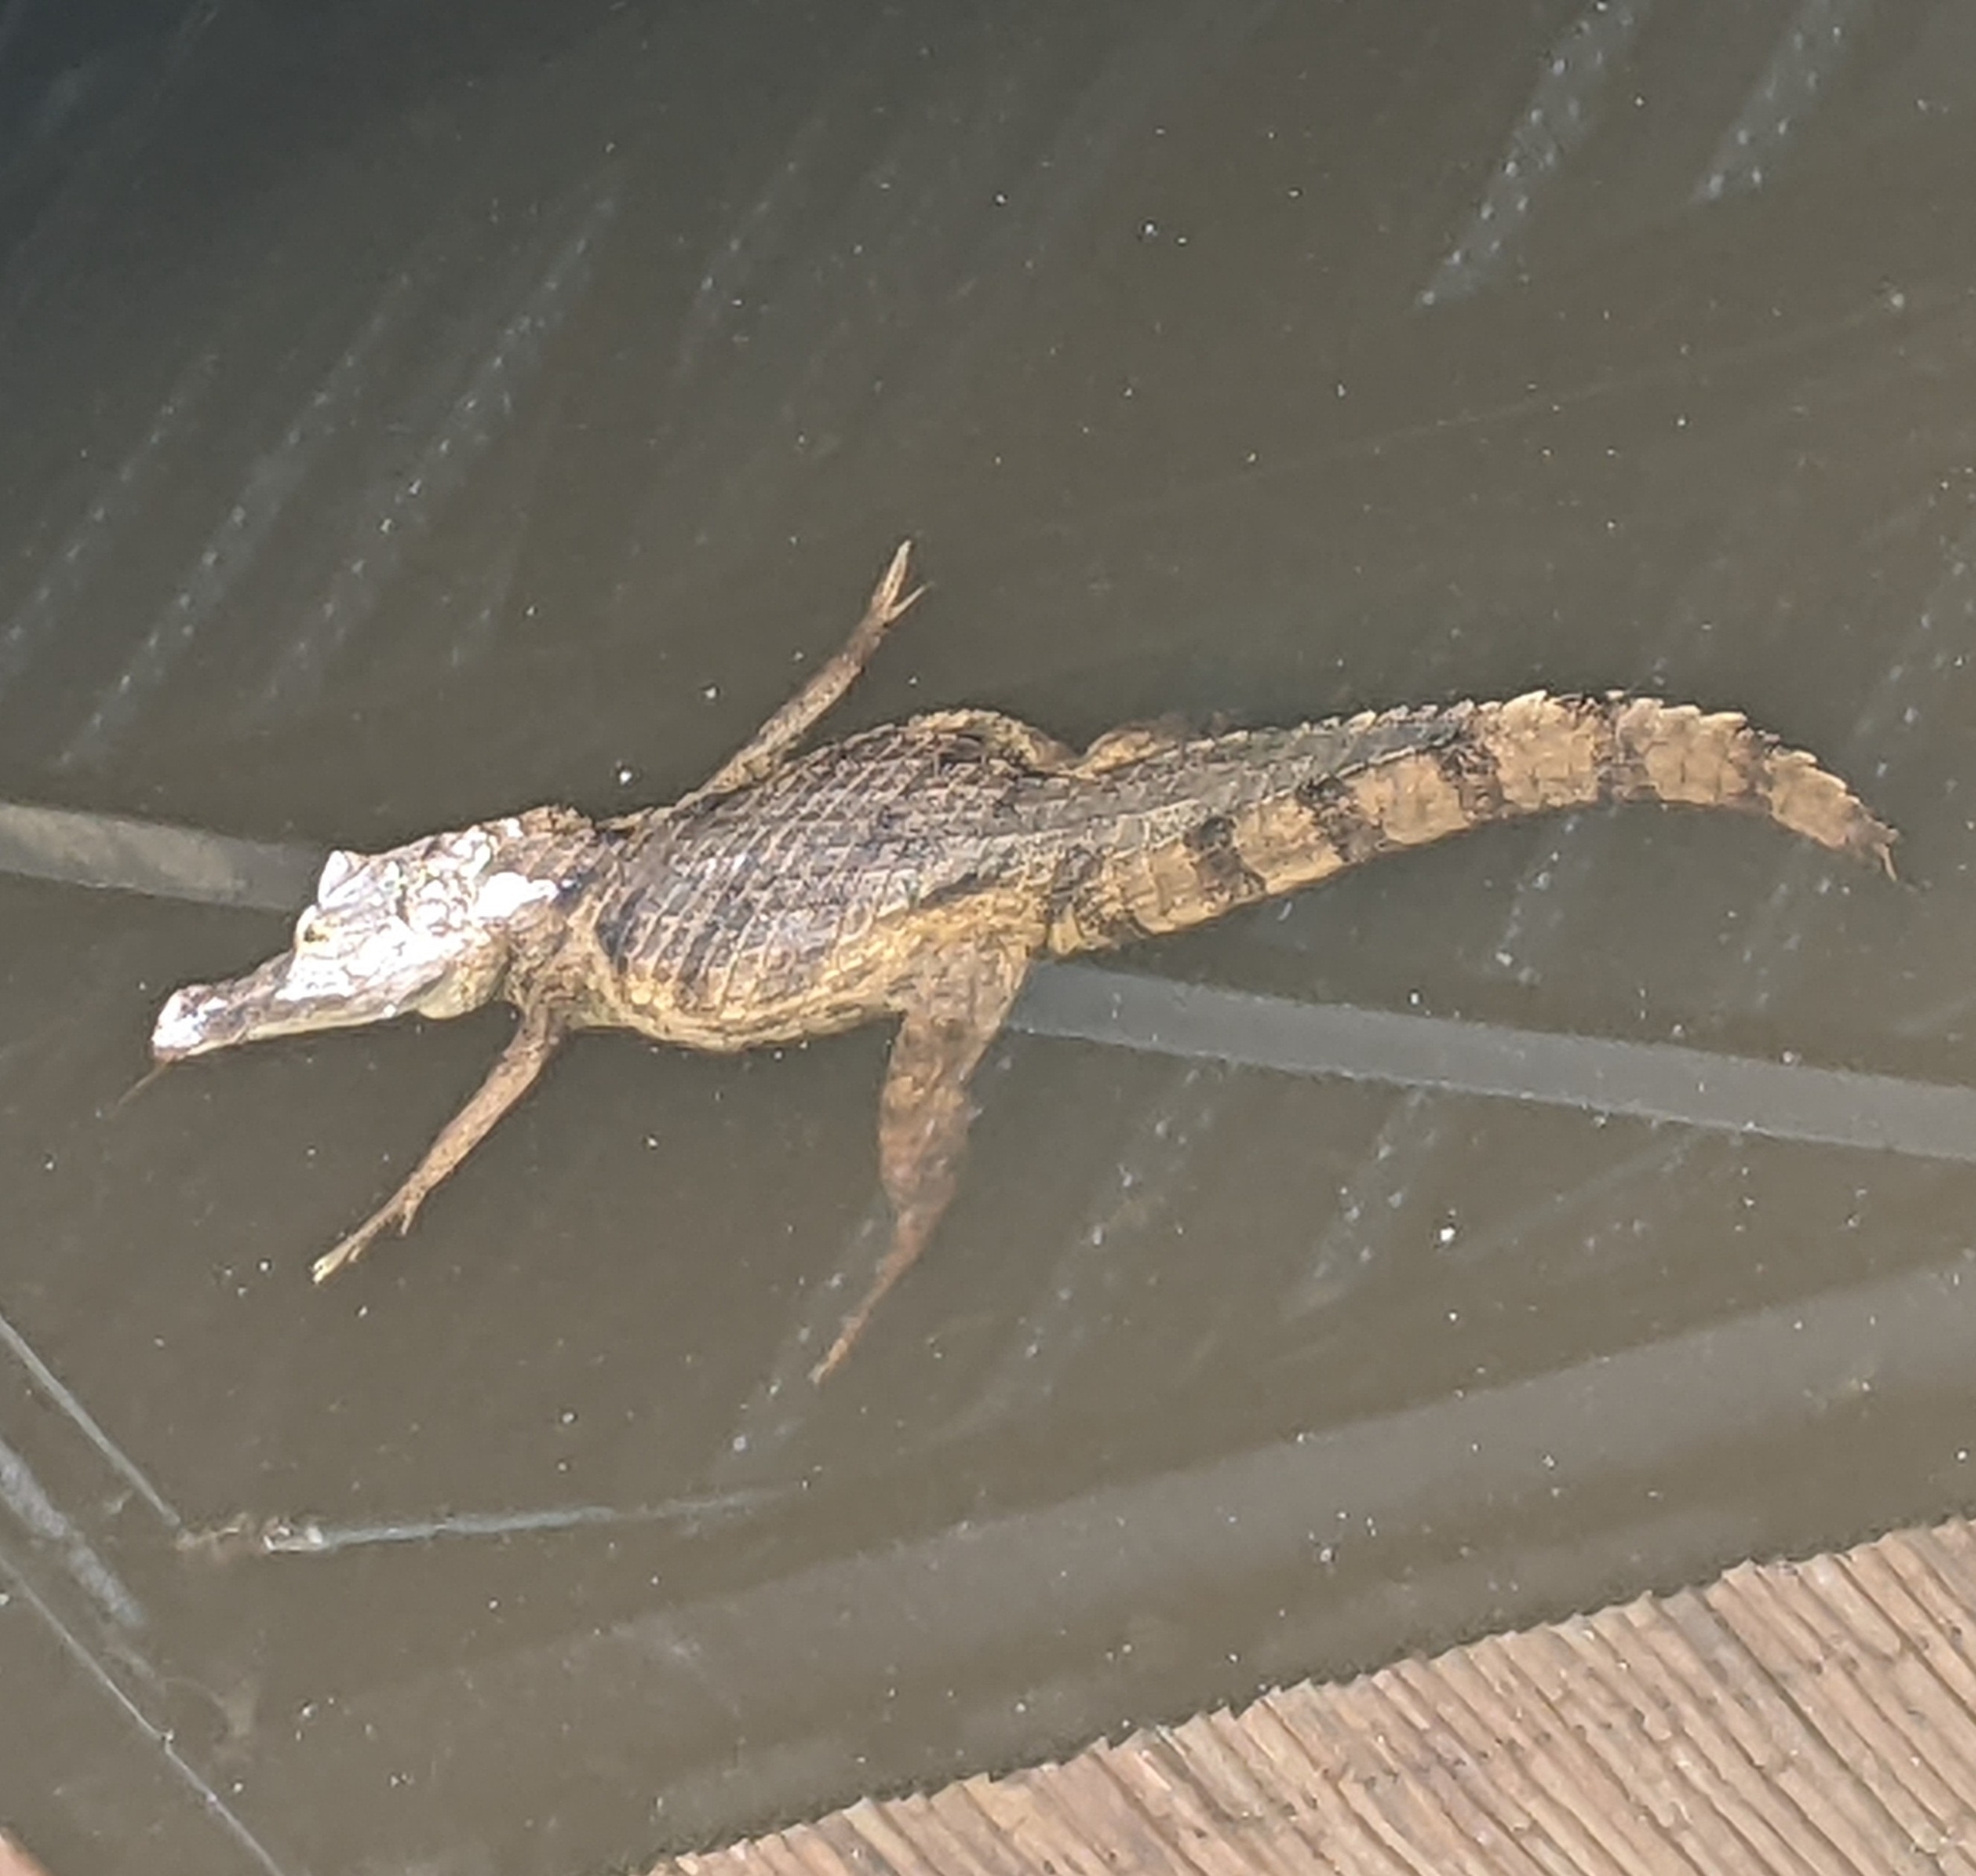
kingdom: Animalia
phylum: Chordata
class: Crocodylia
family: Alligatoridae
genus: Caiman
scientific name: Caiman crocodilus
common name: Common caiman
